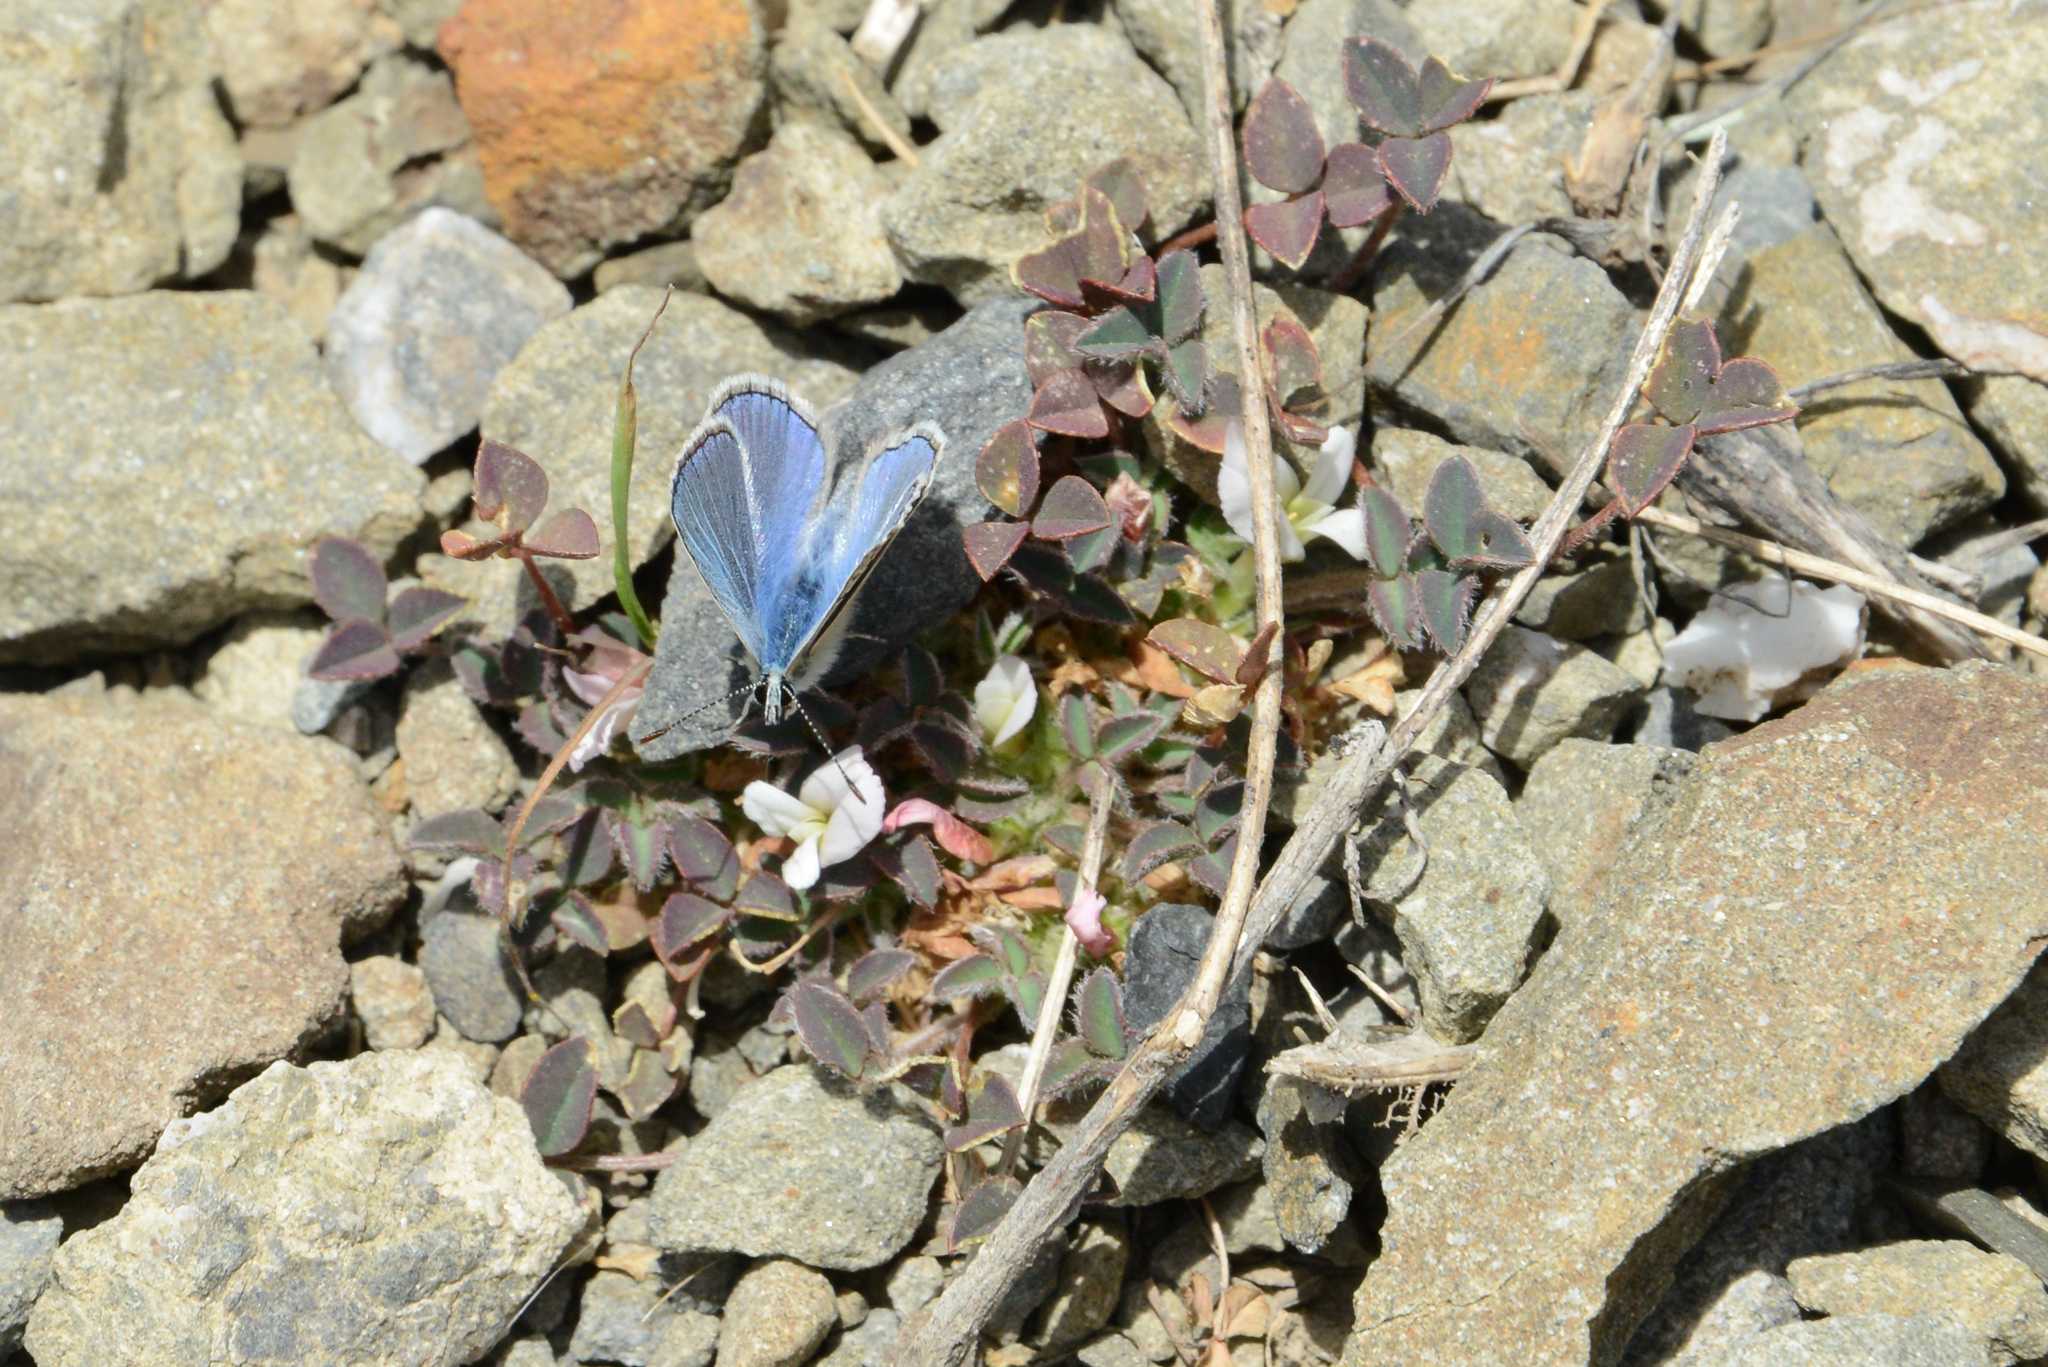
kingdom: Animalia
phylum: Arthropoda
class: Insecta
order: Lepidoptera
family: Lycaenidae
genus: Polyommatus
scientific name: Polyommatus icarus
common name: Common blue
